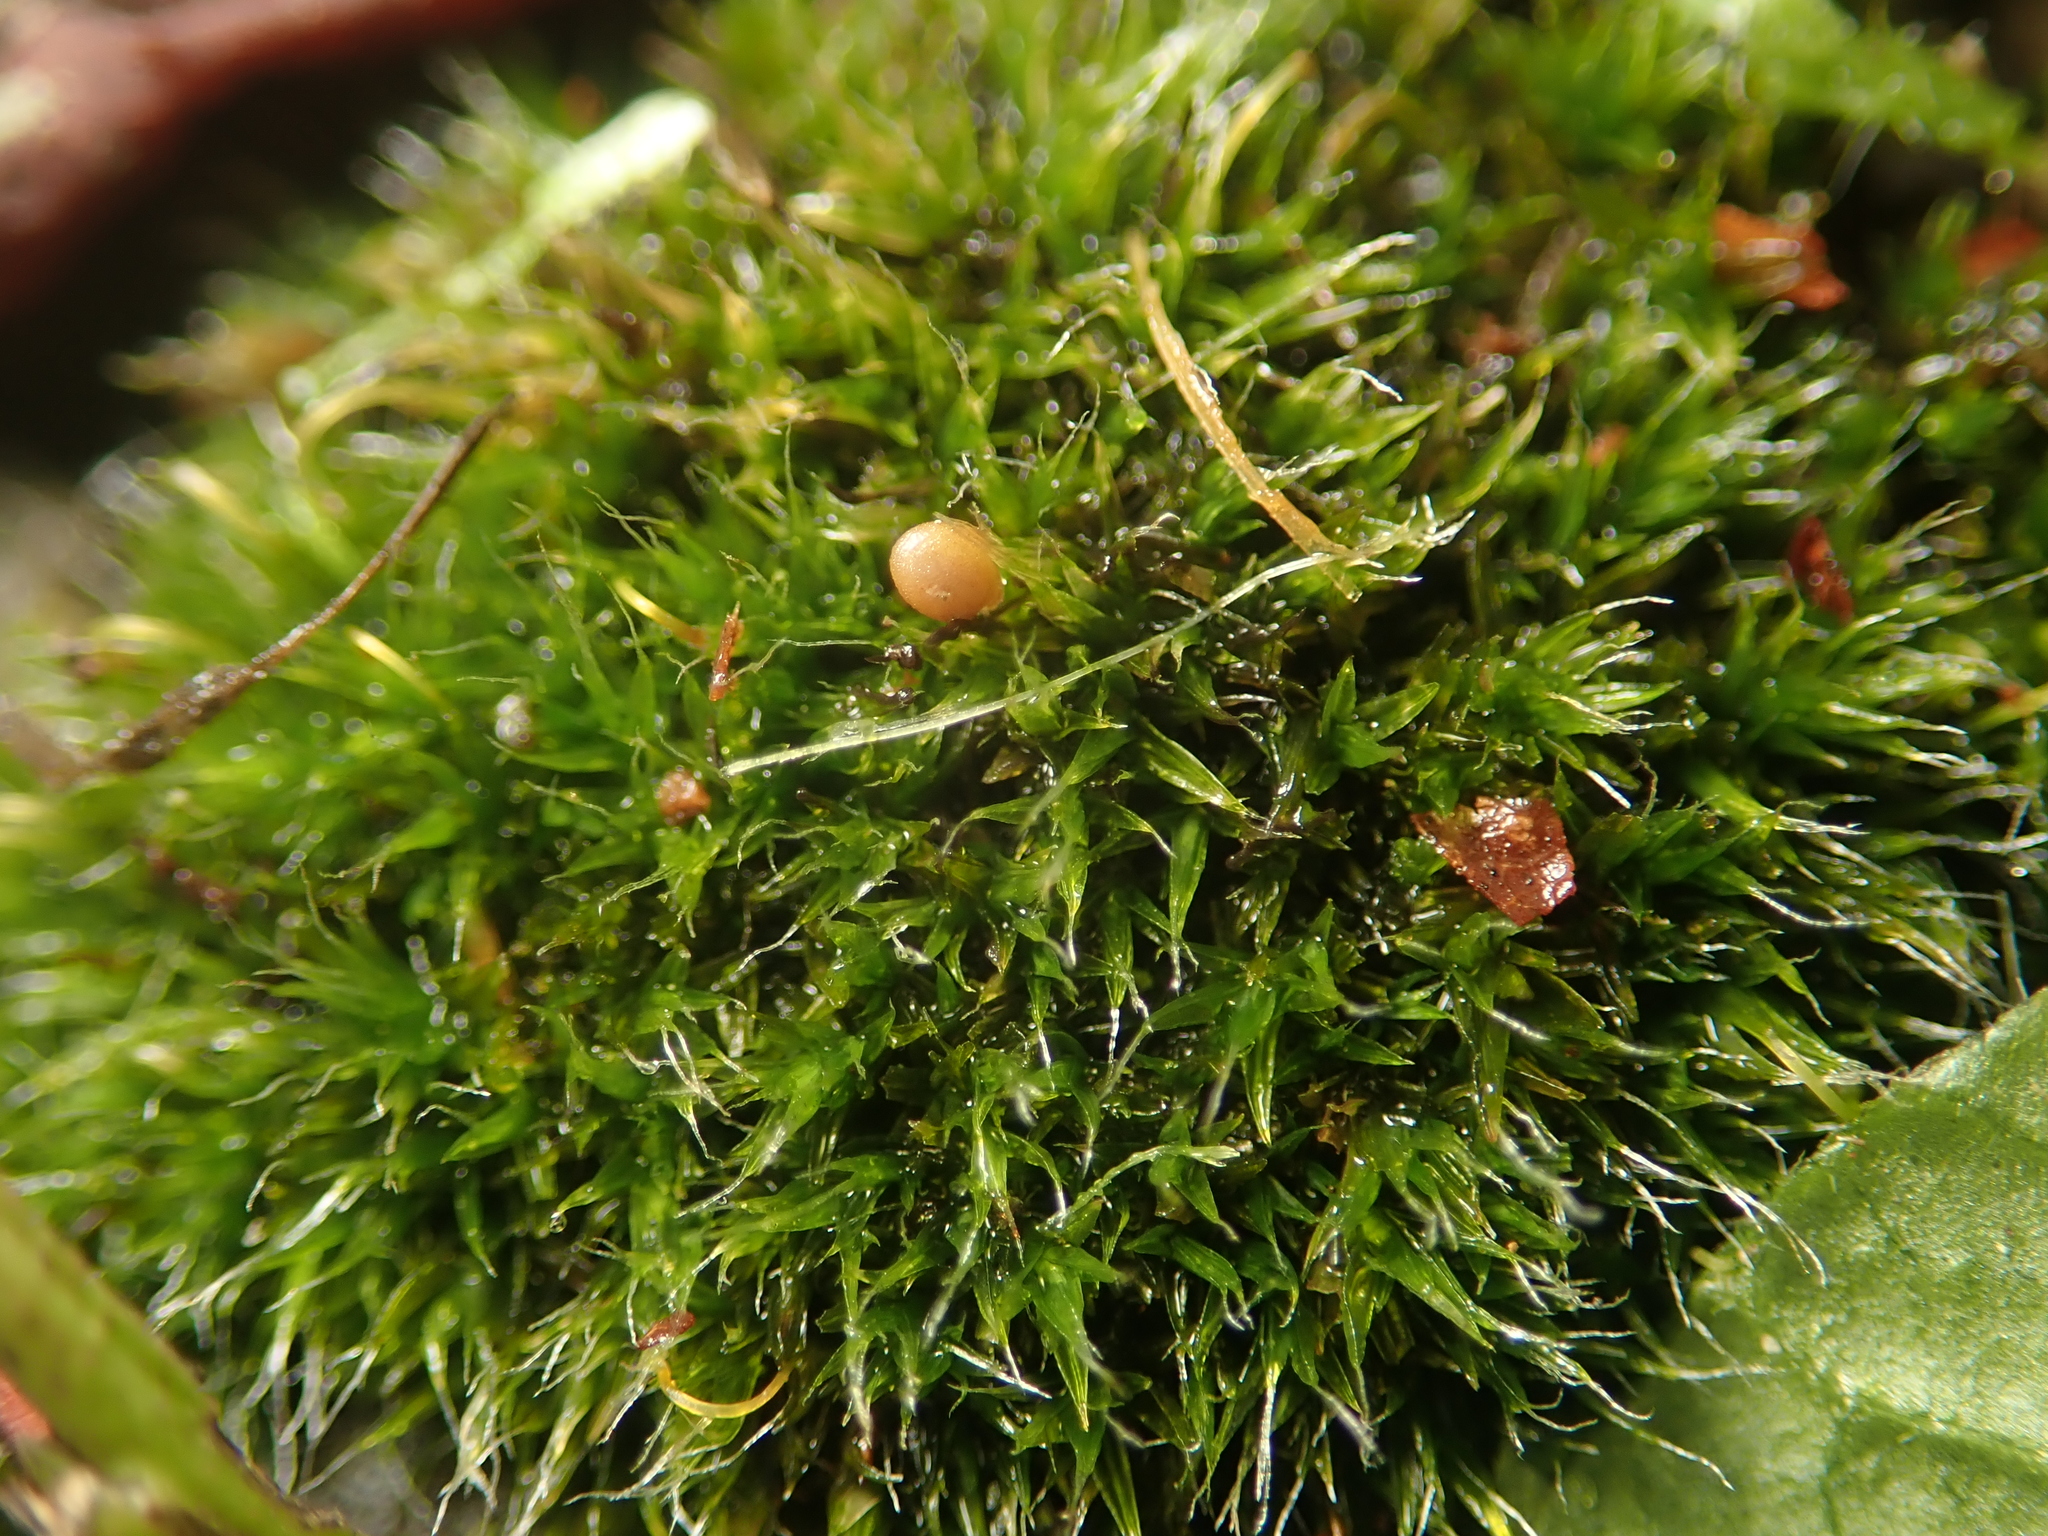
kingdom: Plantae
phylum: Bryophyta
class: Bryopsida
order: Grimmiales
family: Grimmiaceae
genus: Grimmia
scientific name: Grimmia pulvinata
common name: Grey-cushioned grimmia
